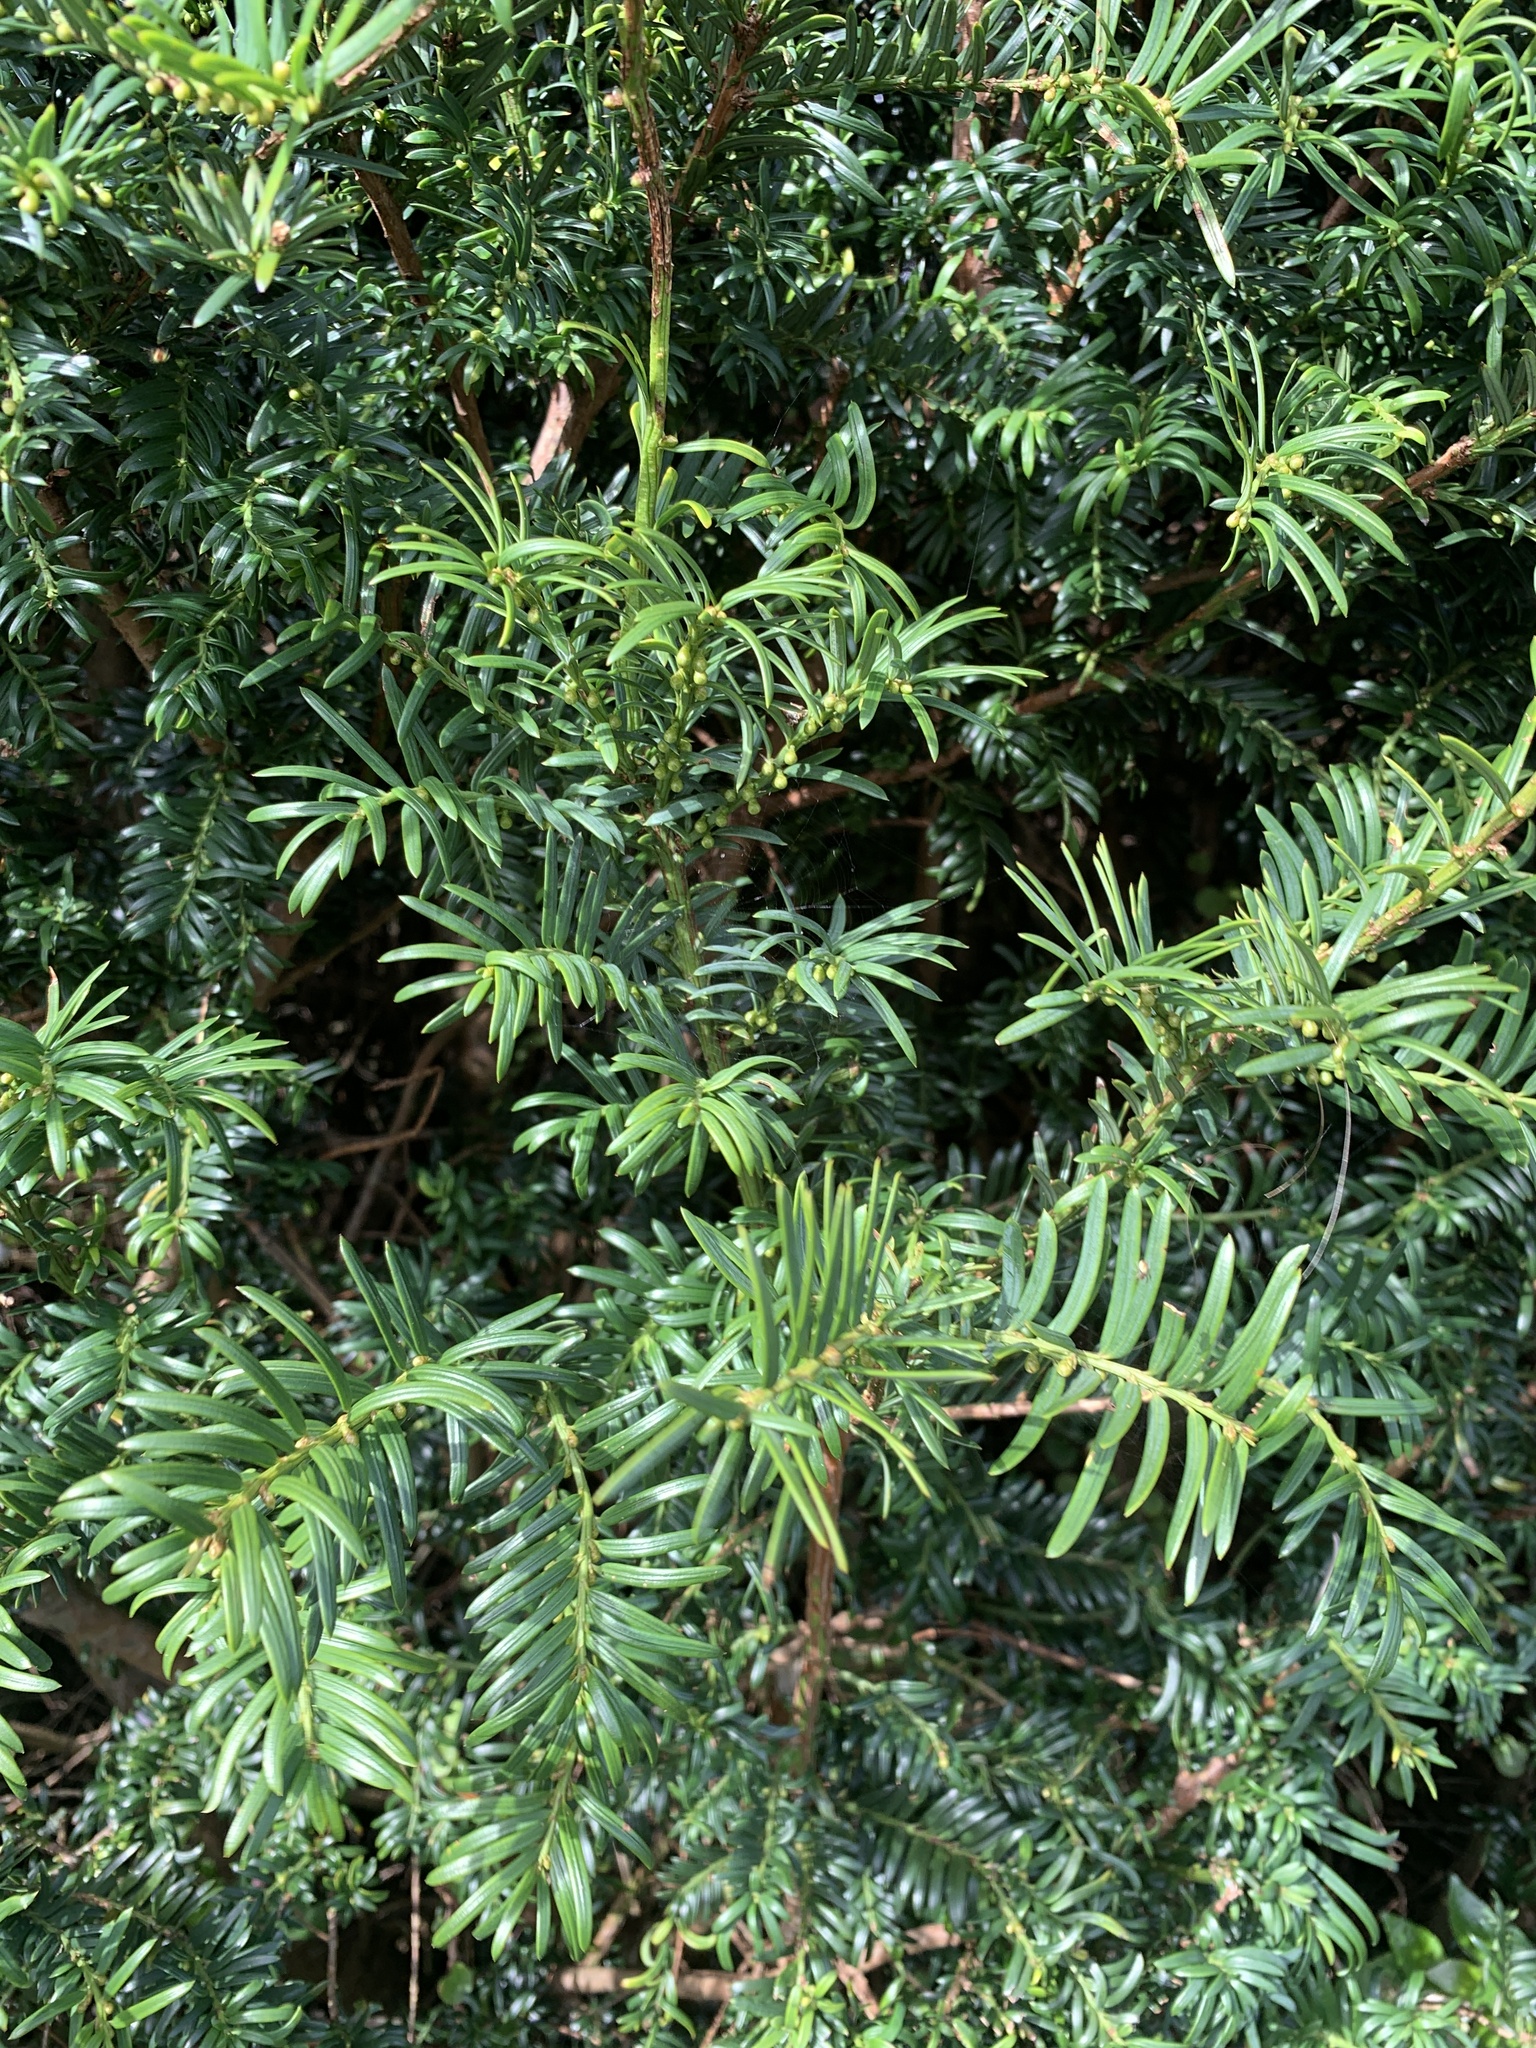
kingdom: Plantae
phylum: Tracheophyta
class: Pinopsida
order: Pinales
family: Taxaceae
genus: Taxus
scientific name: Taxus baccata
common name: Yew
